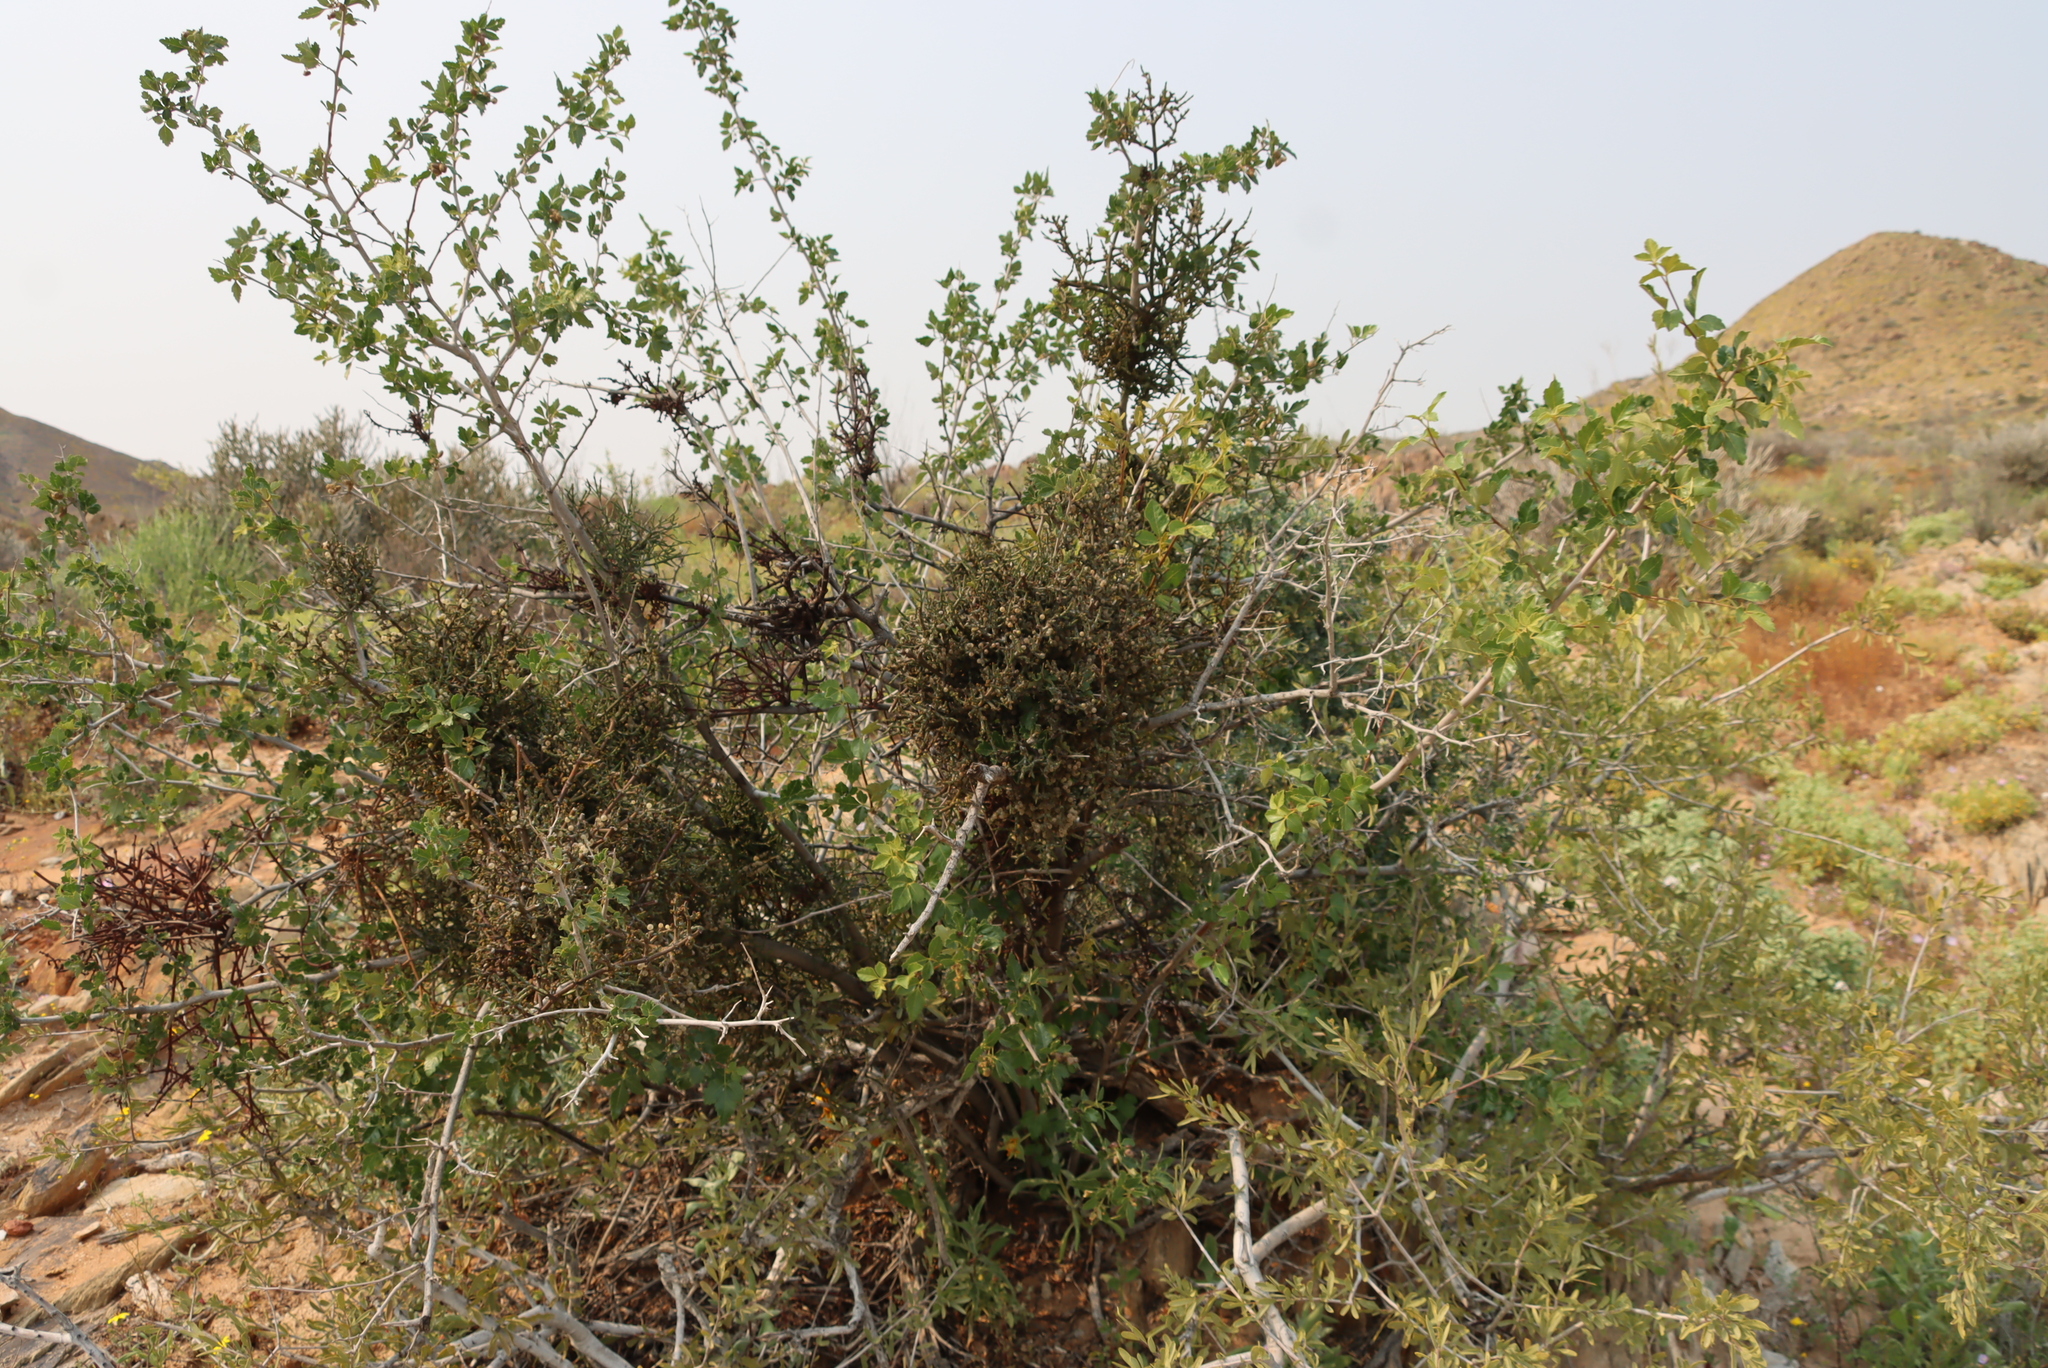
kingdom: Plantae
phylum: Tracheophyta
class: Magnoliopsida
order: Sapindales
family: Anacardiaceae
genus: Searsia
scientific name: Searsia populifolia
